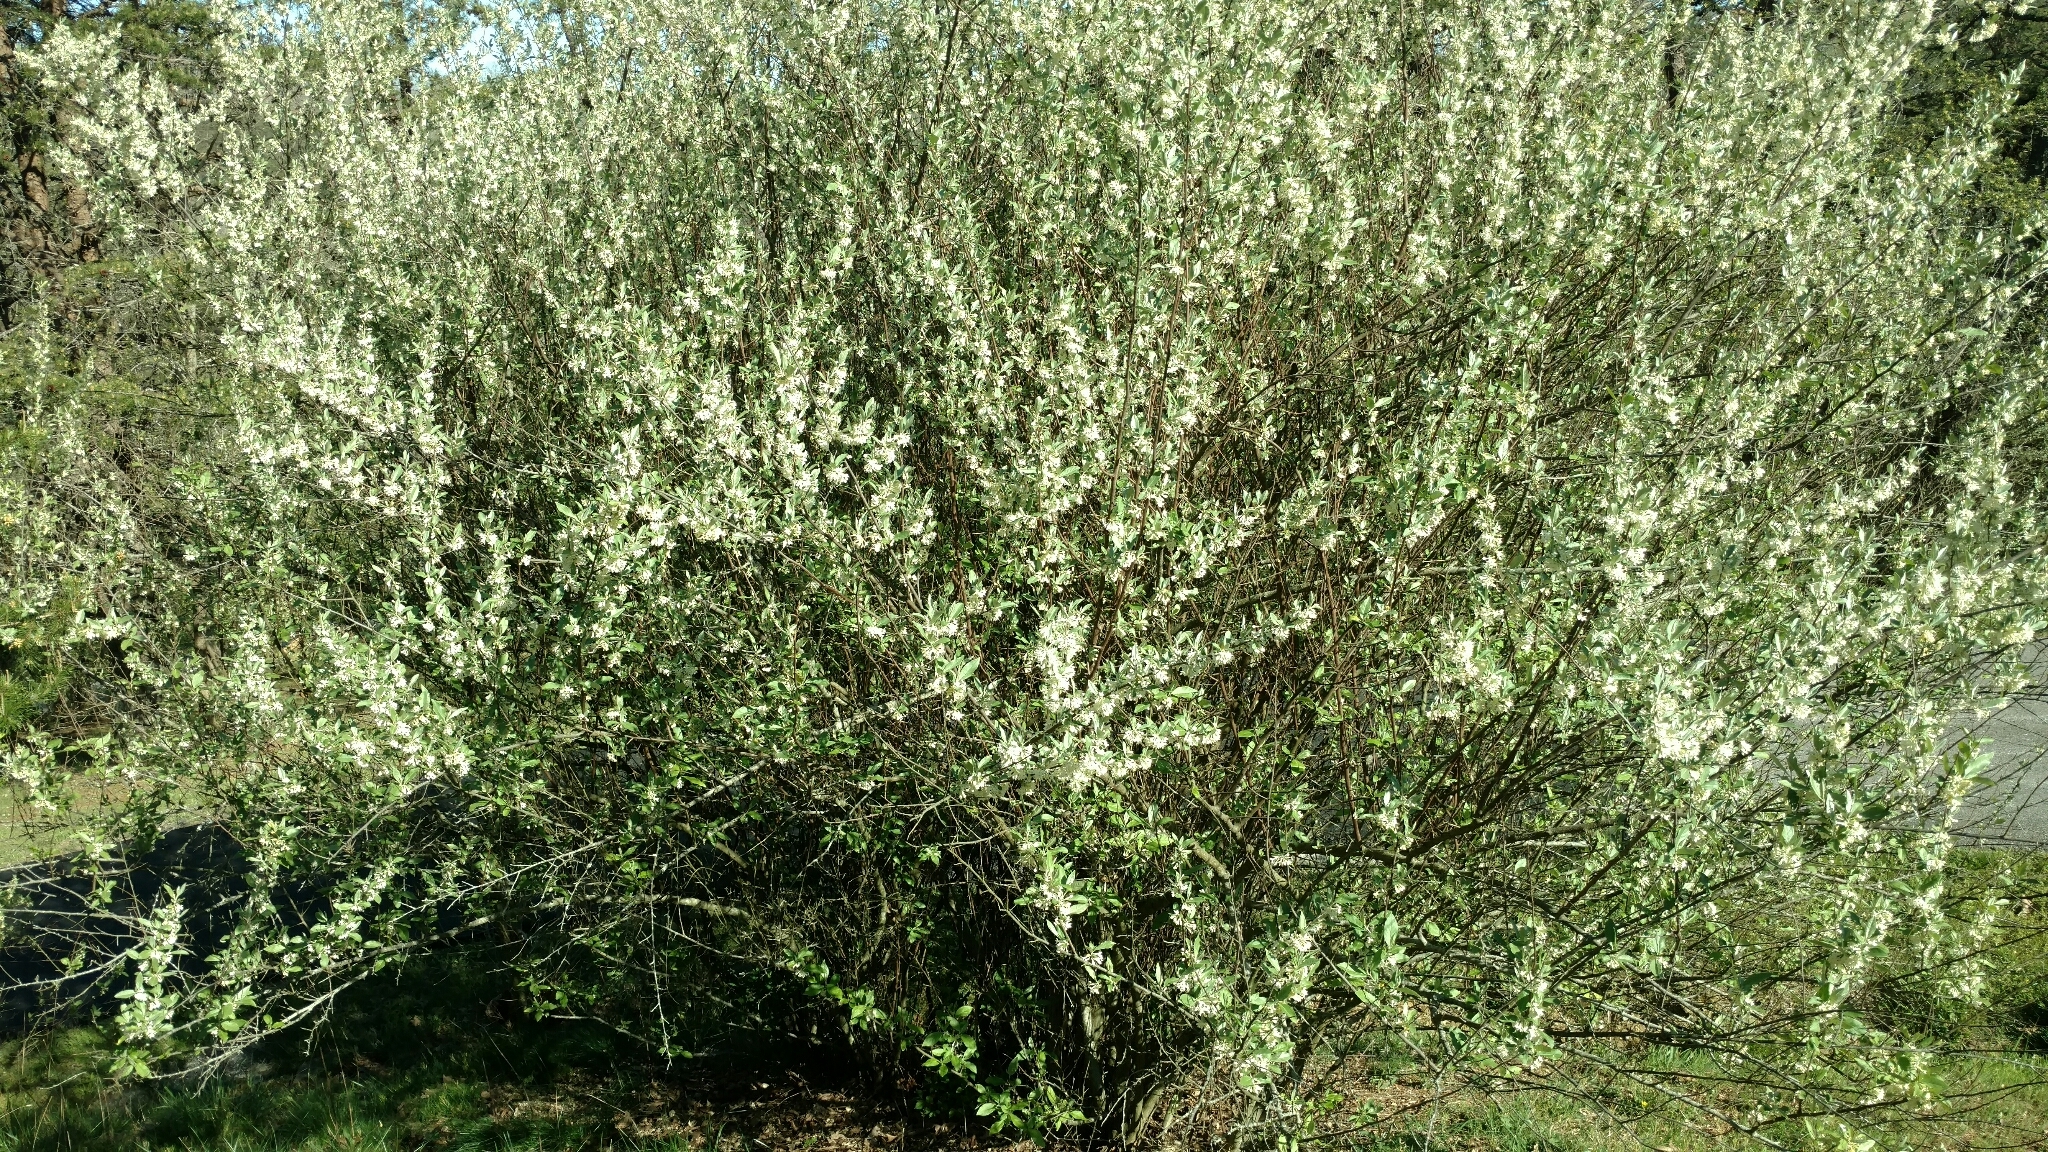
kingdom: Plantae
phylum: Tracheophyta
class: Magnoliopsida
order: Rosales
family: Elaeagnaceae
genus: Elaeagnus
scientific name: Elaeagnus umbellata
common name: Autumn olive
